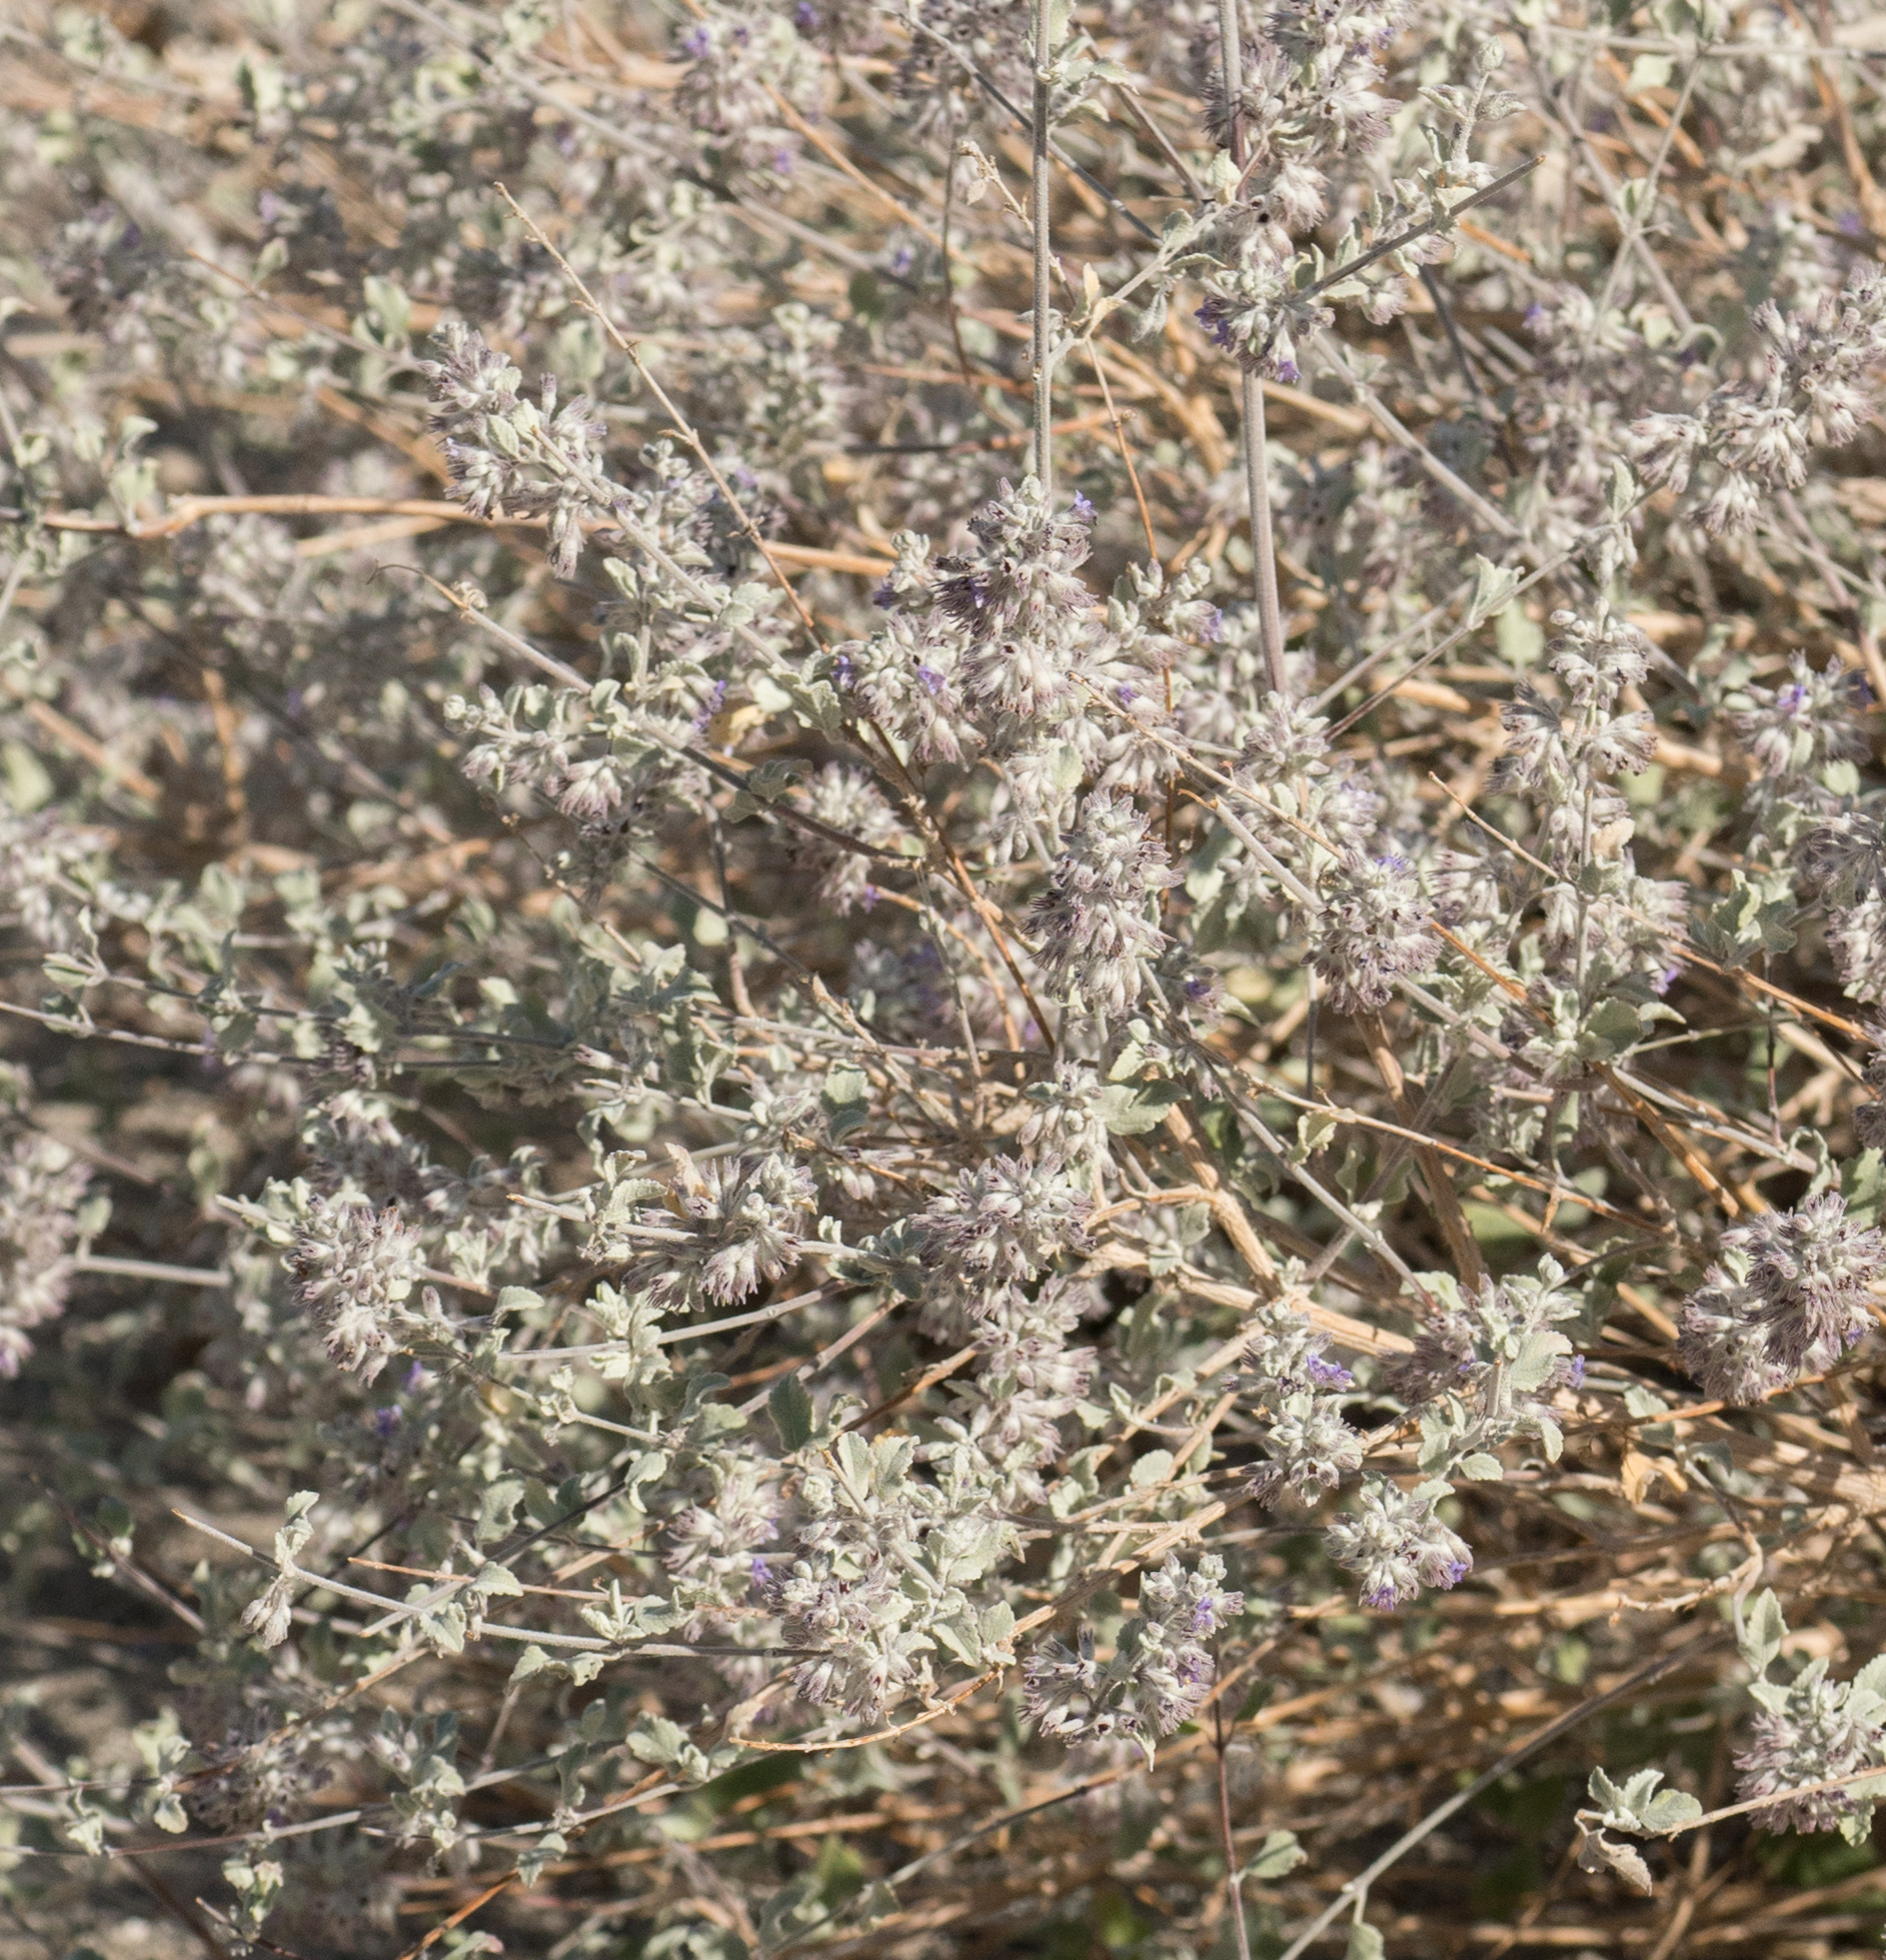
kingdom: Plantae
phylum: Tracheophyta
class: Magnoliopsida
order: Lamiales
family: Lamiaceae
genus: Condea
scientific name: Condea emoryi
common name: Chia
